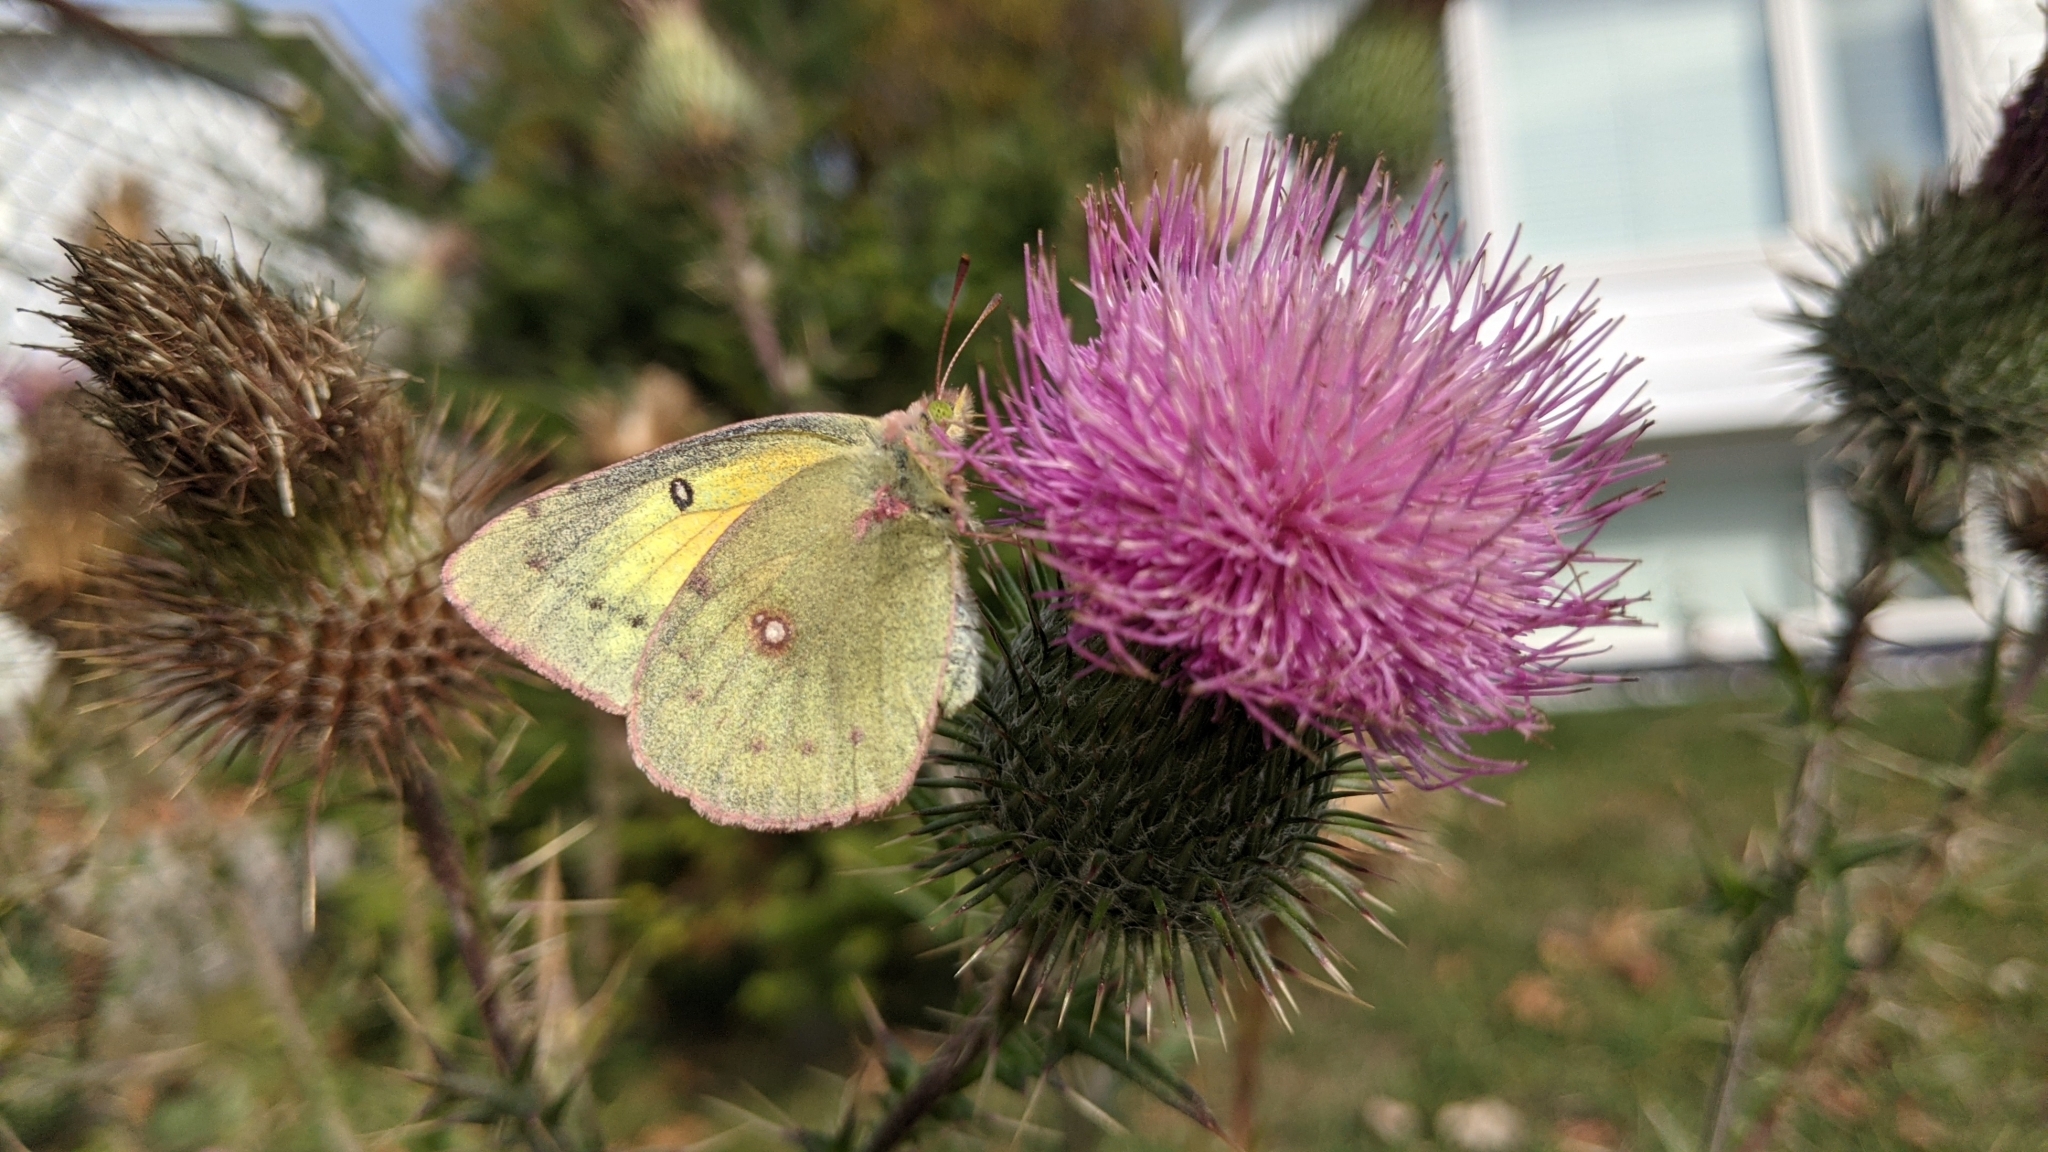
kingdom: Animalia
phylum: Arthropoda
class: Insecta
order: Lepidoptera
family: Pieridae
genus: Colias
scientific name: Colias philodice
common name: Clouded sulphur
